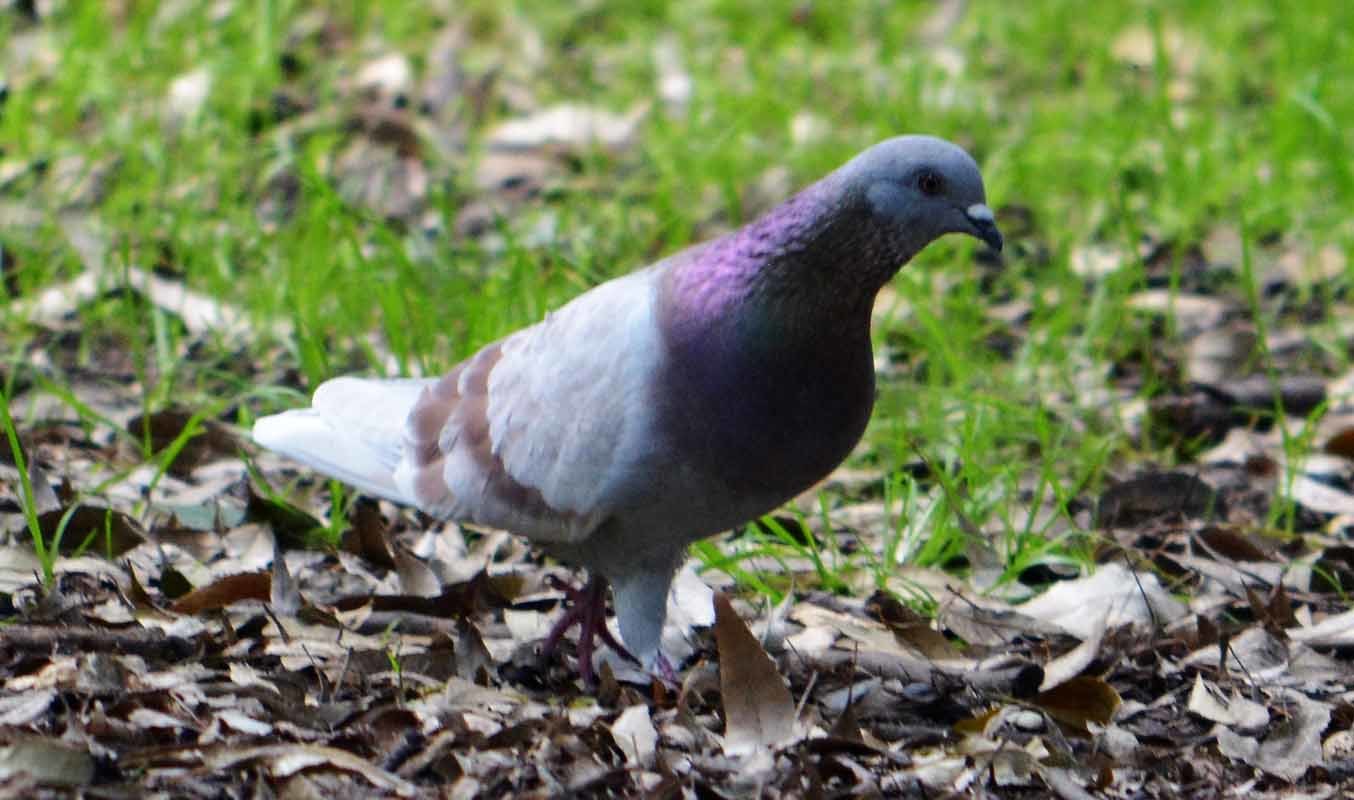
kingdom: Animalia
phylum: Chordata
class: Aves
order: Columbiformes
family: Columbidae
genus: Columba
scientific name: Columba livia
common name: Rock pigeon
